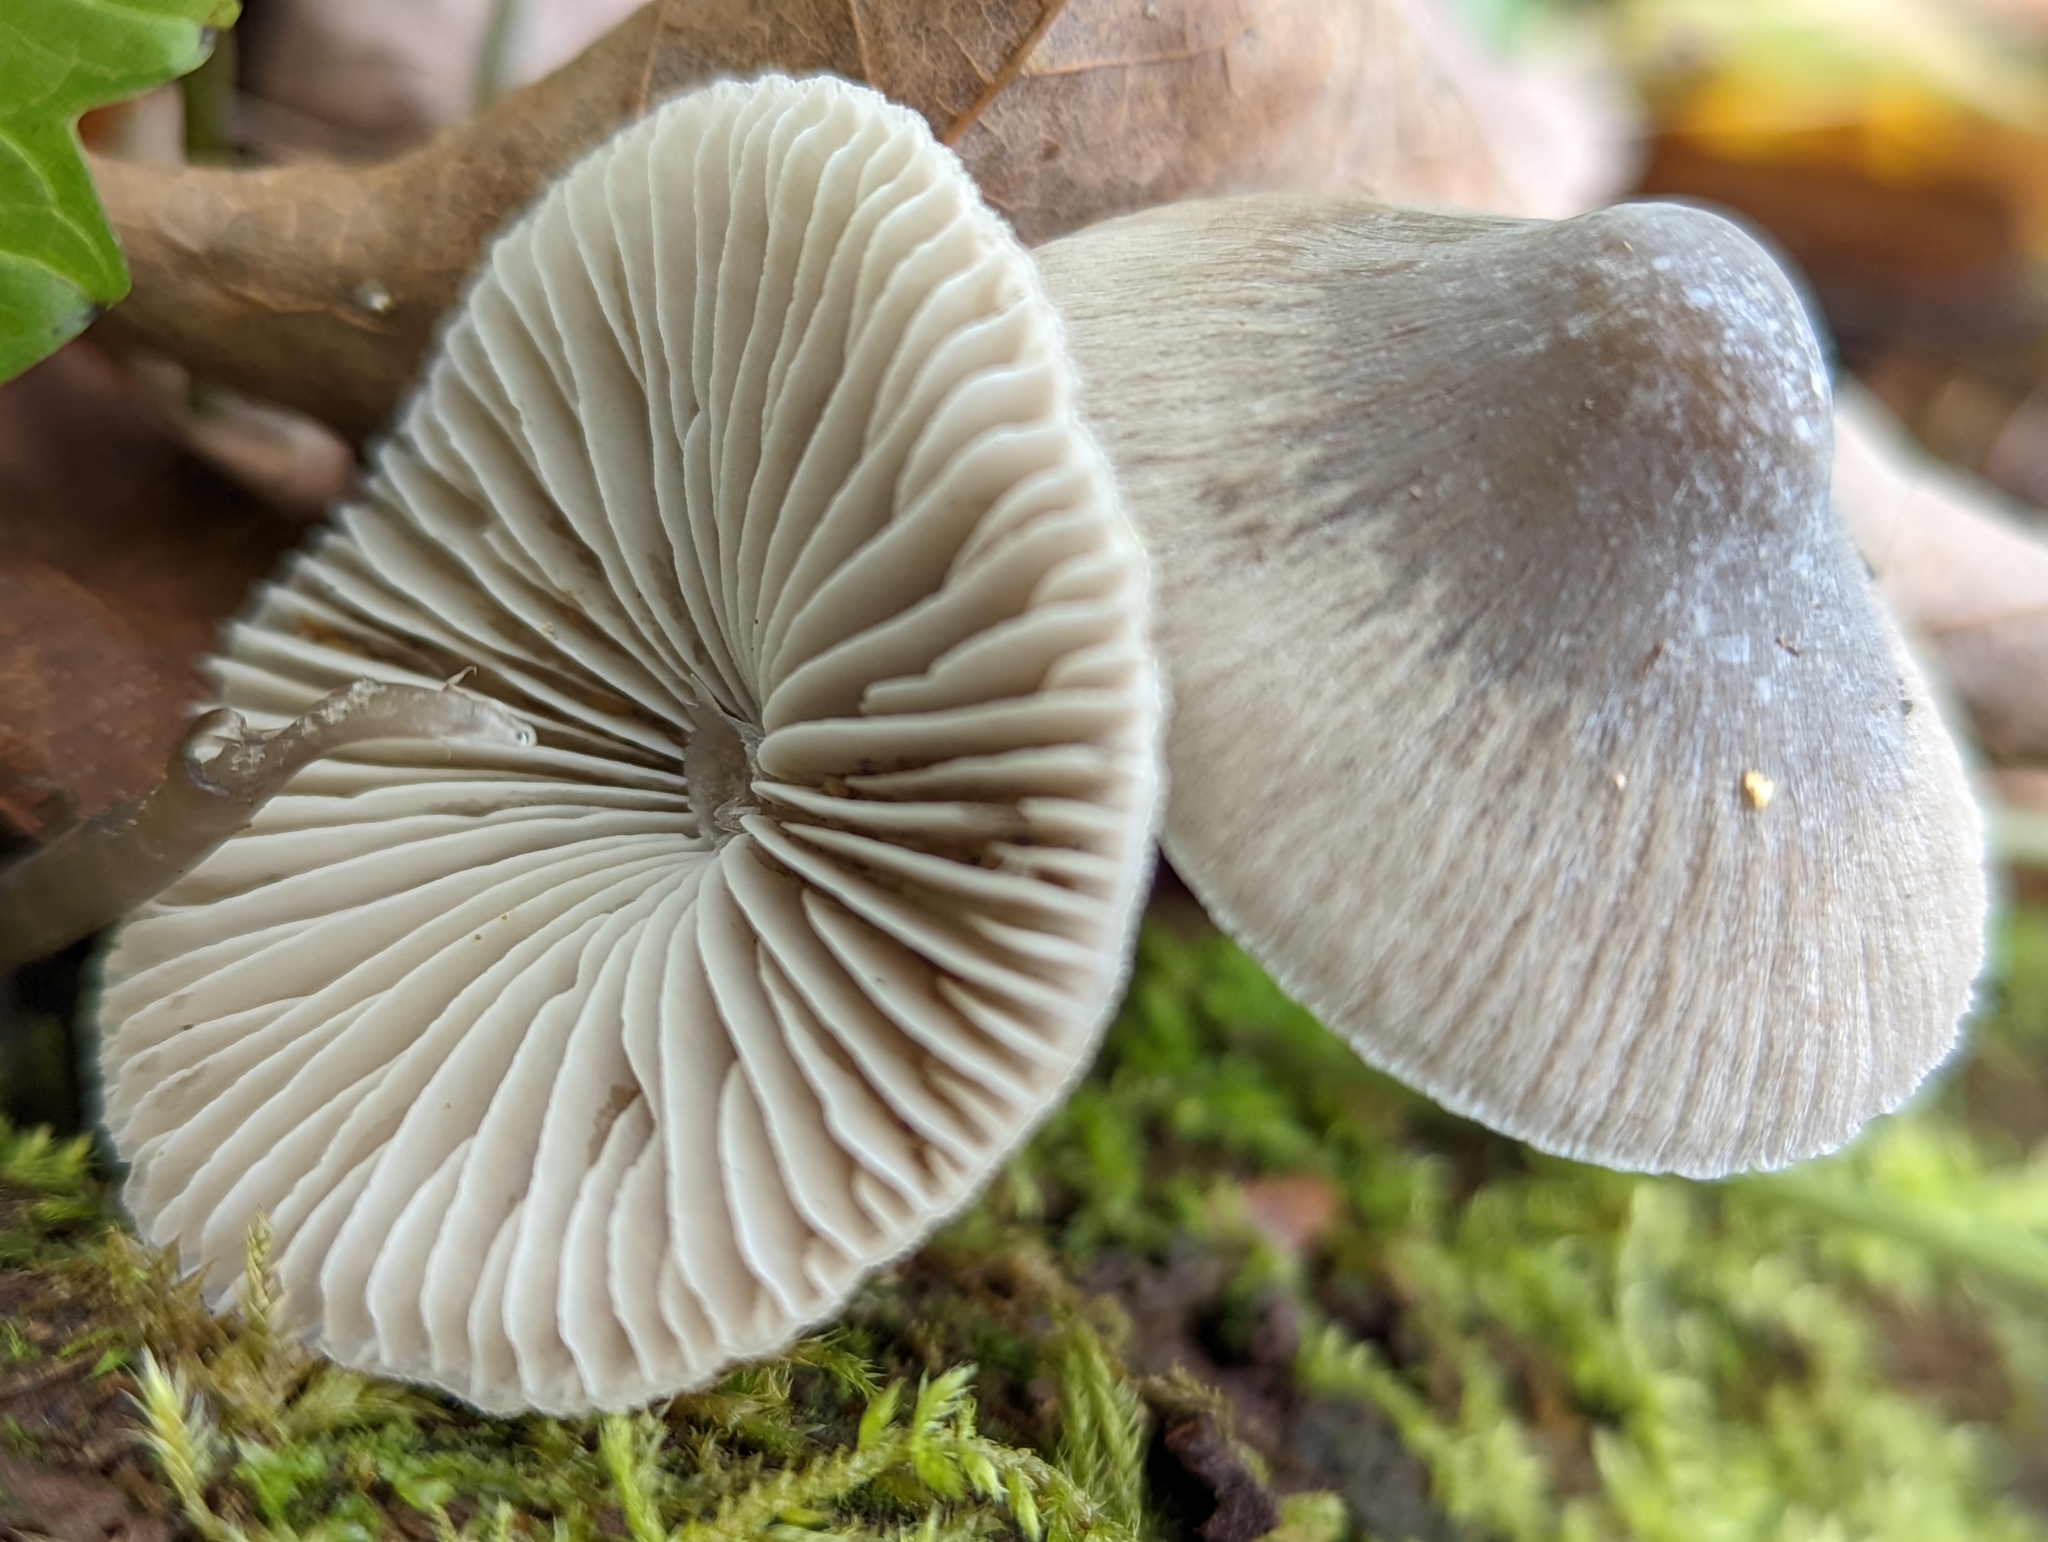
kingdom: Fungi
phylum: Basidiomycota
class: Agaricomycetes
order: Agaricales
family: Mycenaceae
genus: Mycena
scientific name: Mycena robusta
